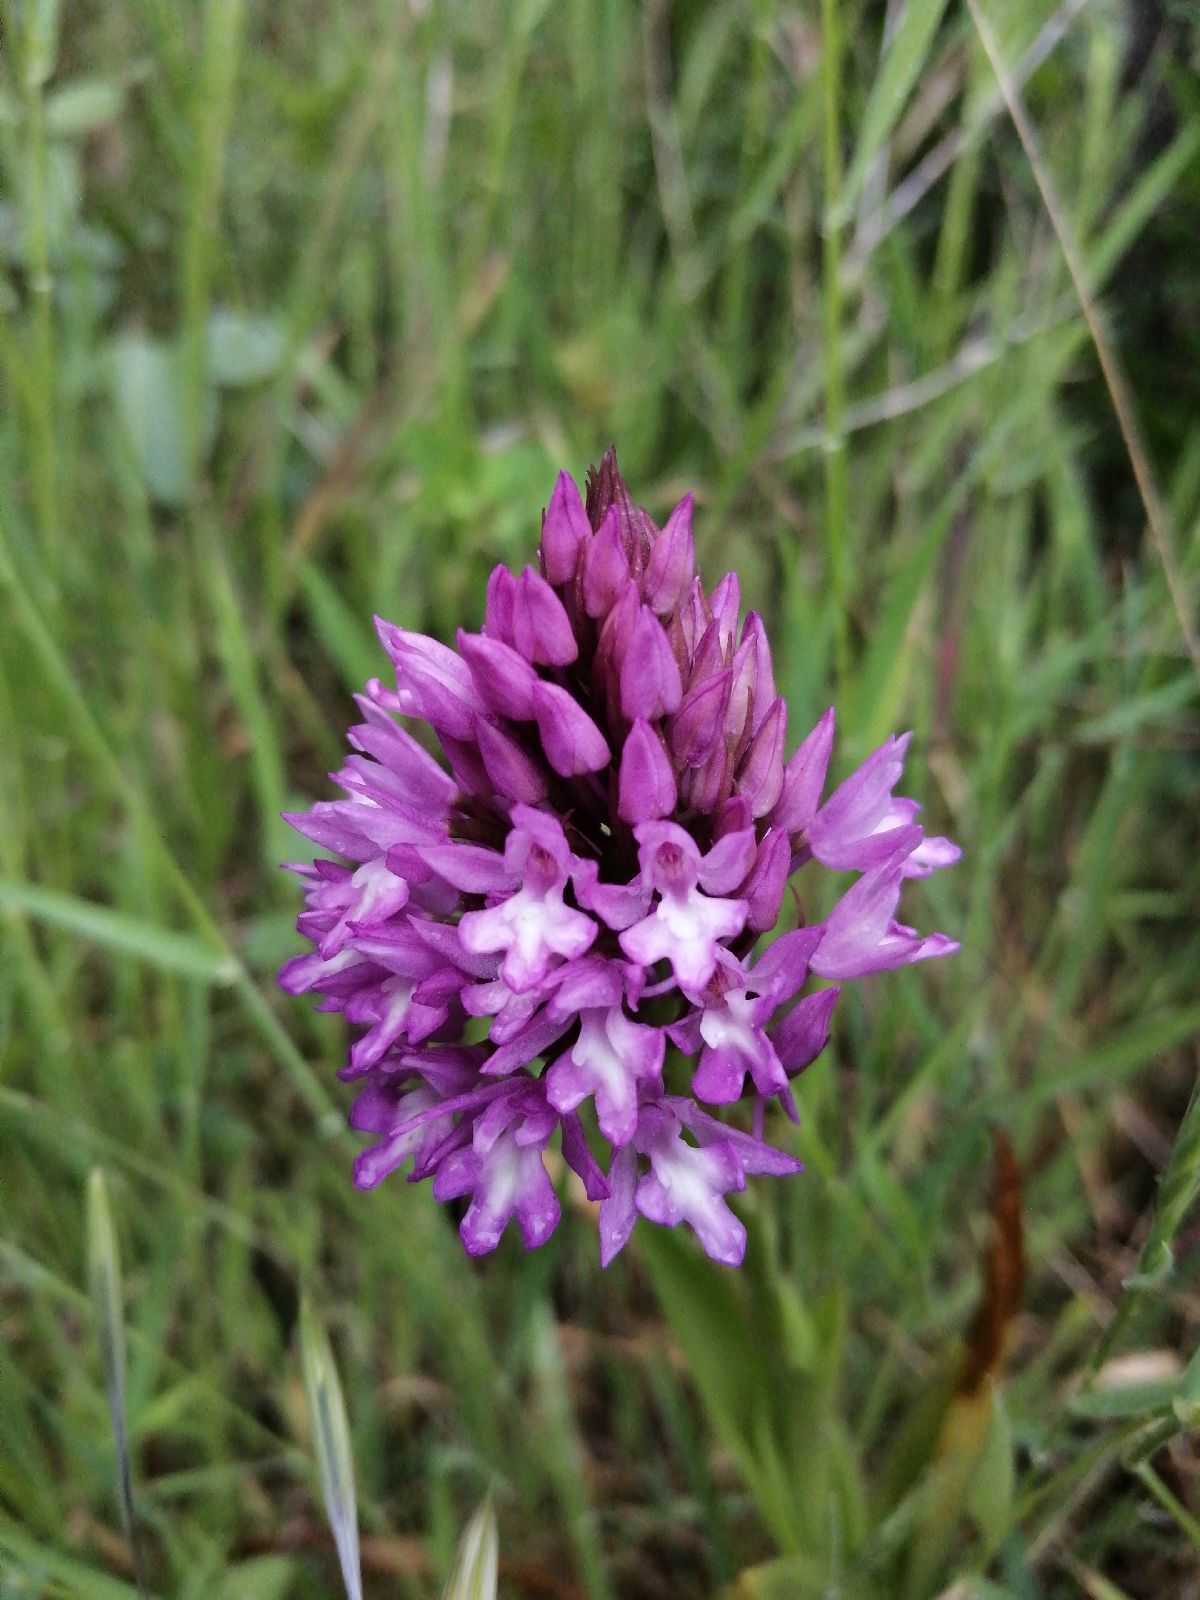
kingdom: Plantae
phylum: Tracheophyta
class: Liliopsida
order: Asparagales
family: Orchidaceae
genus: Anacamptis
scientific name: Anacamptis pyramidalis
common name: Pyramidal orchid
